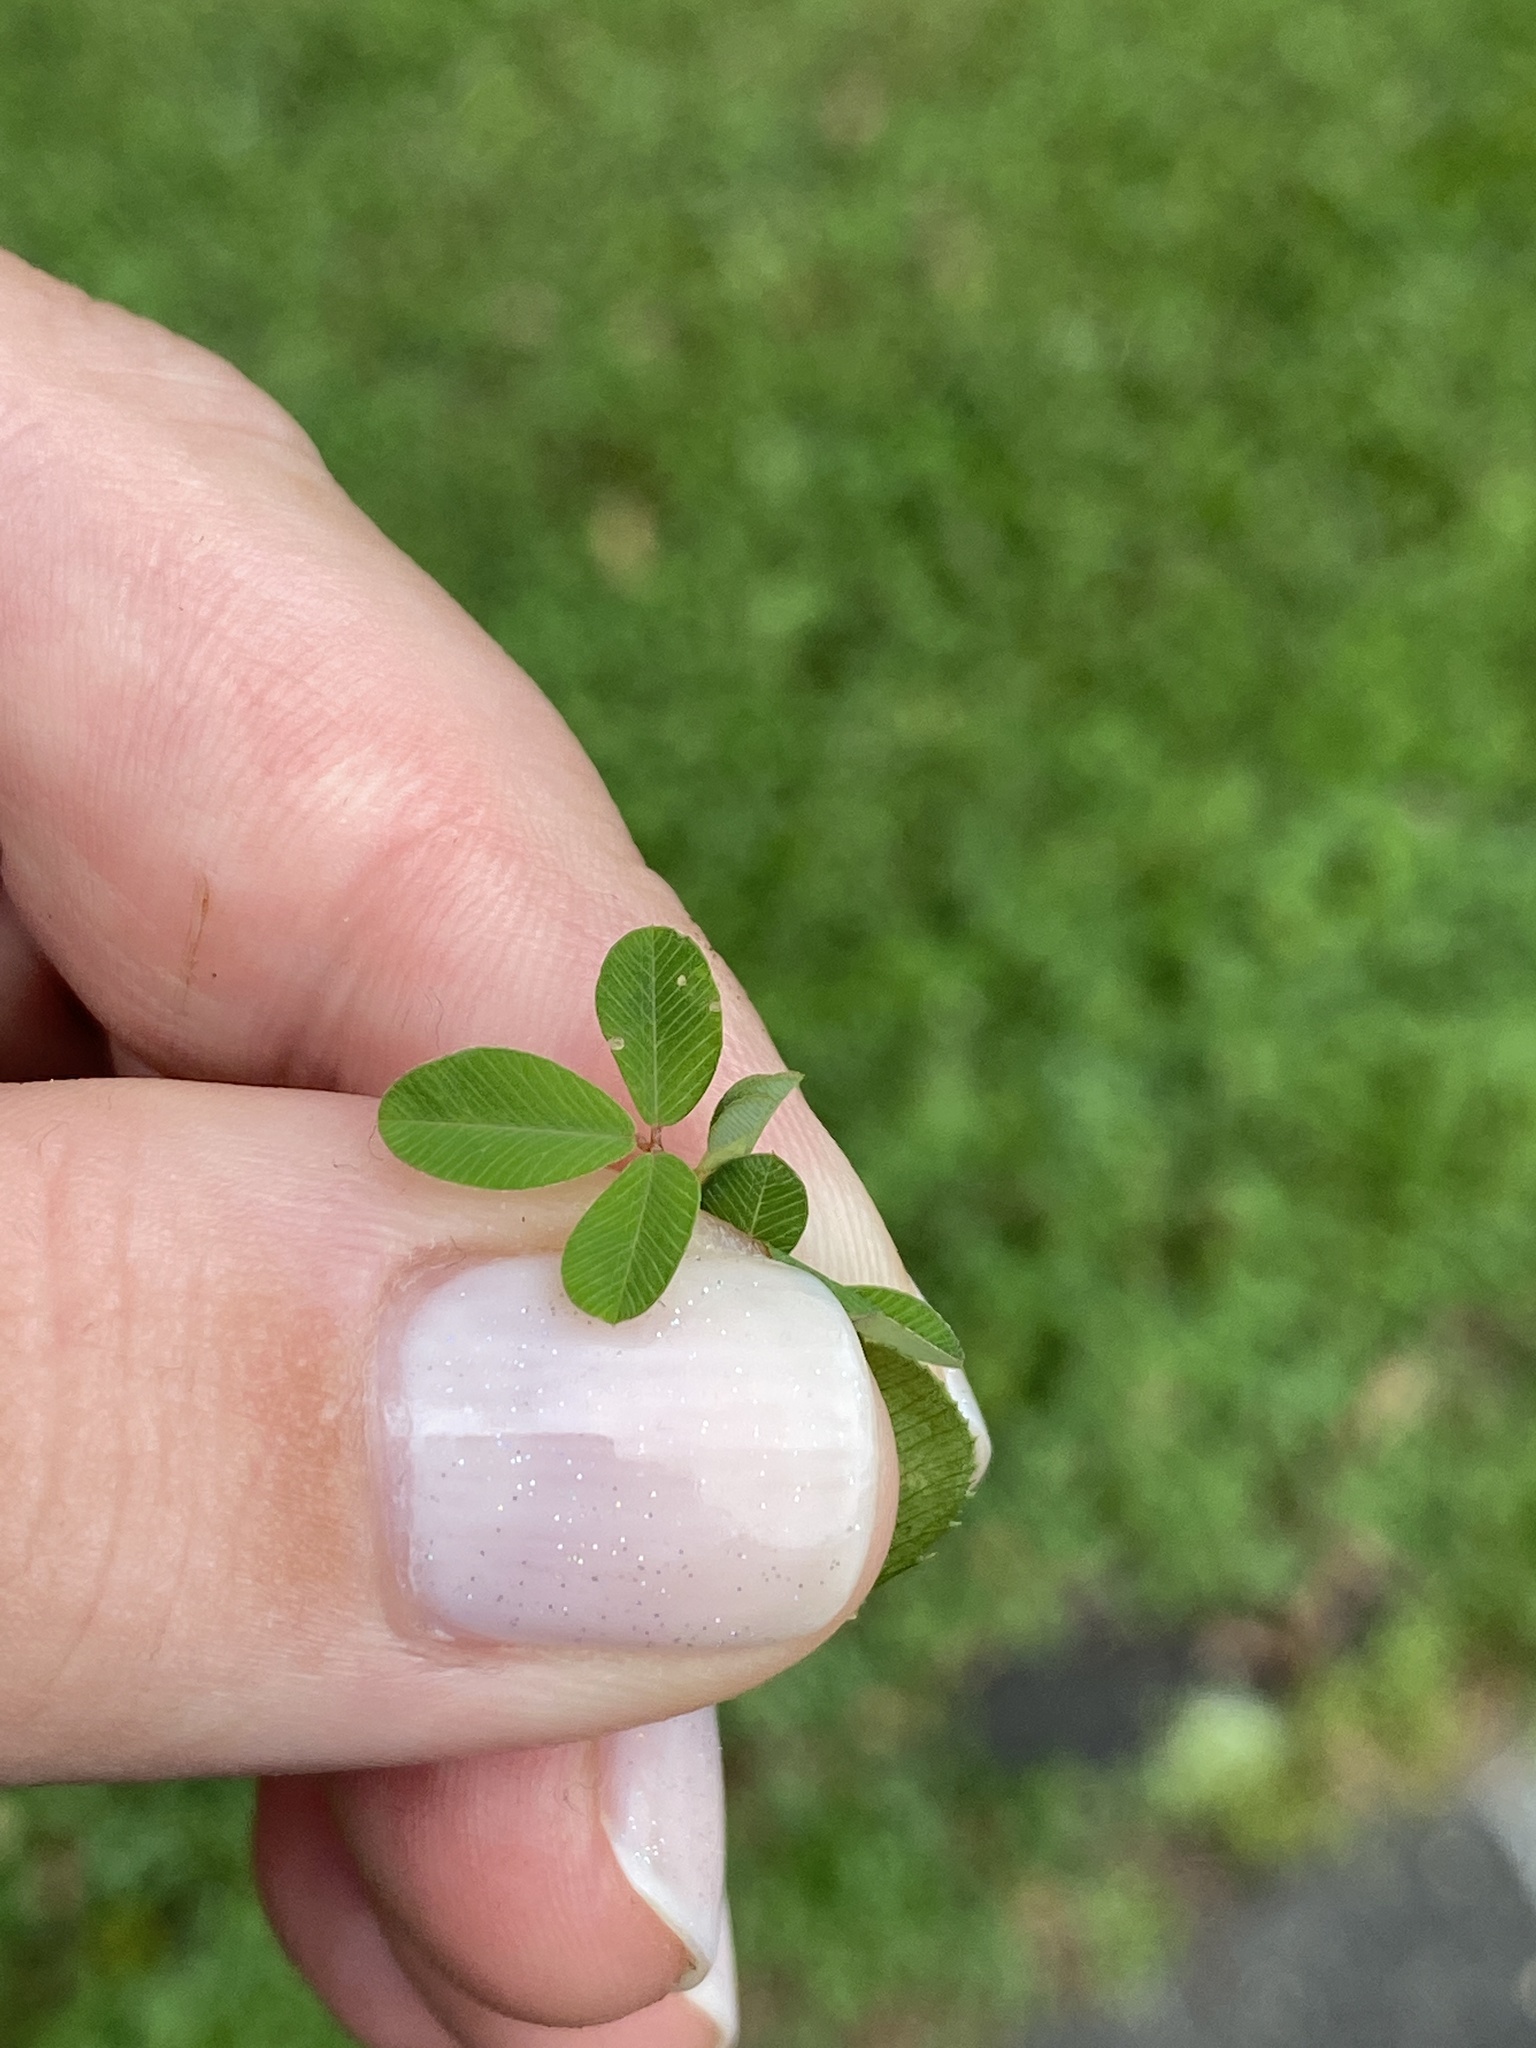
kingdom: Plantae
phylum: Tracheophyta
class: Magnoliopsida
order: Fabales
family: Fabaceae
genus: Kummerowia
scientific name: Kummerowia striata
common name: Japanese clover
